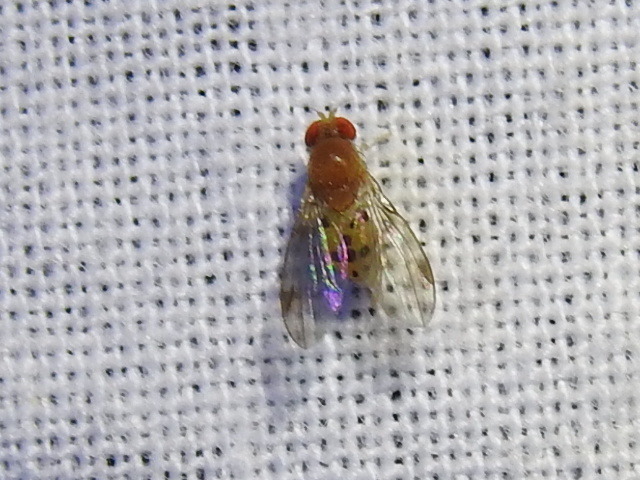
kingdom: Animalia
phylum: Arthropoda
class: Insecta
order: Diptera
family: Drosophilidae
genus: Leucophenga
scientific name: Leucophenga varia
